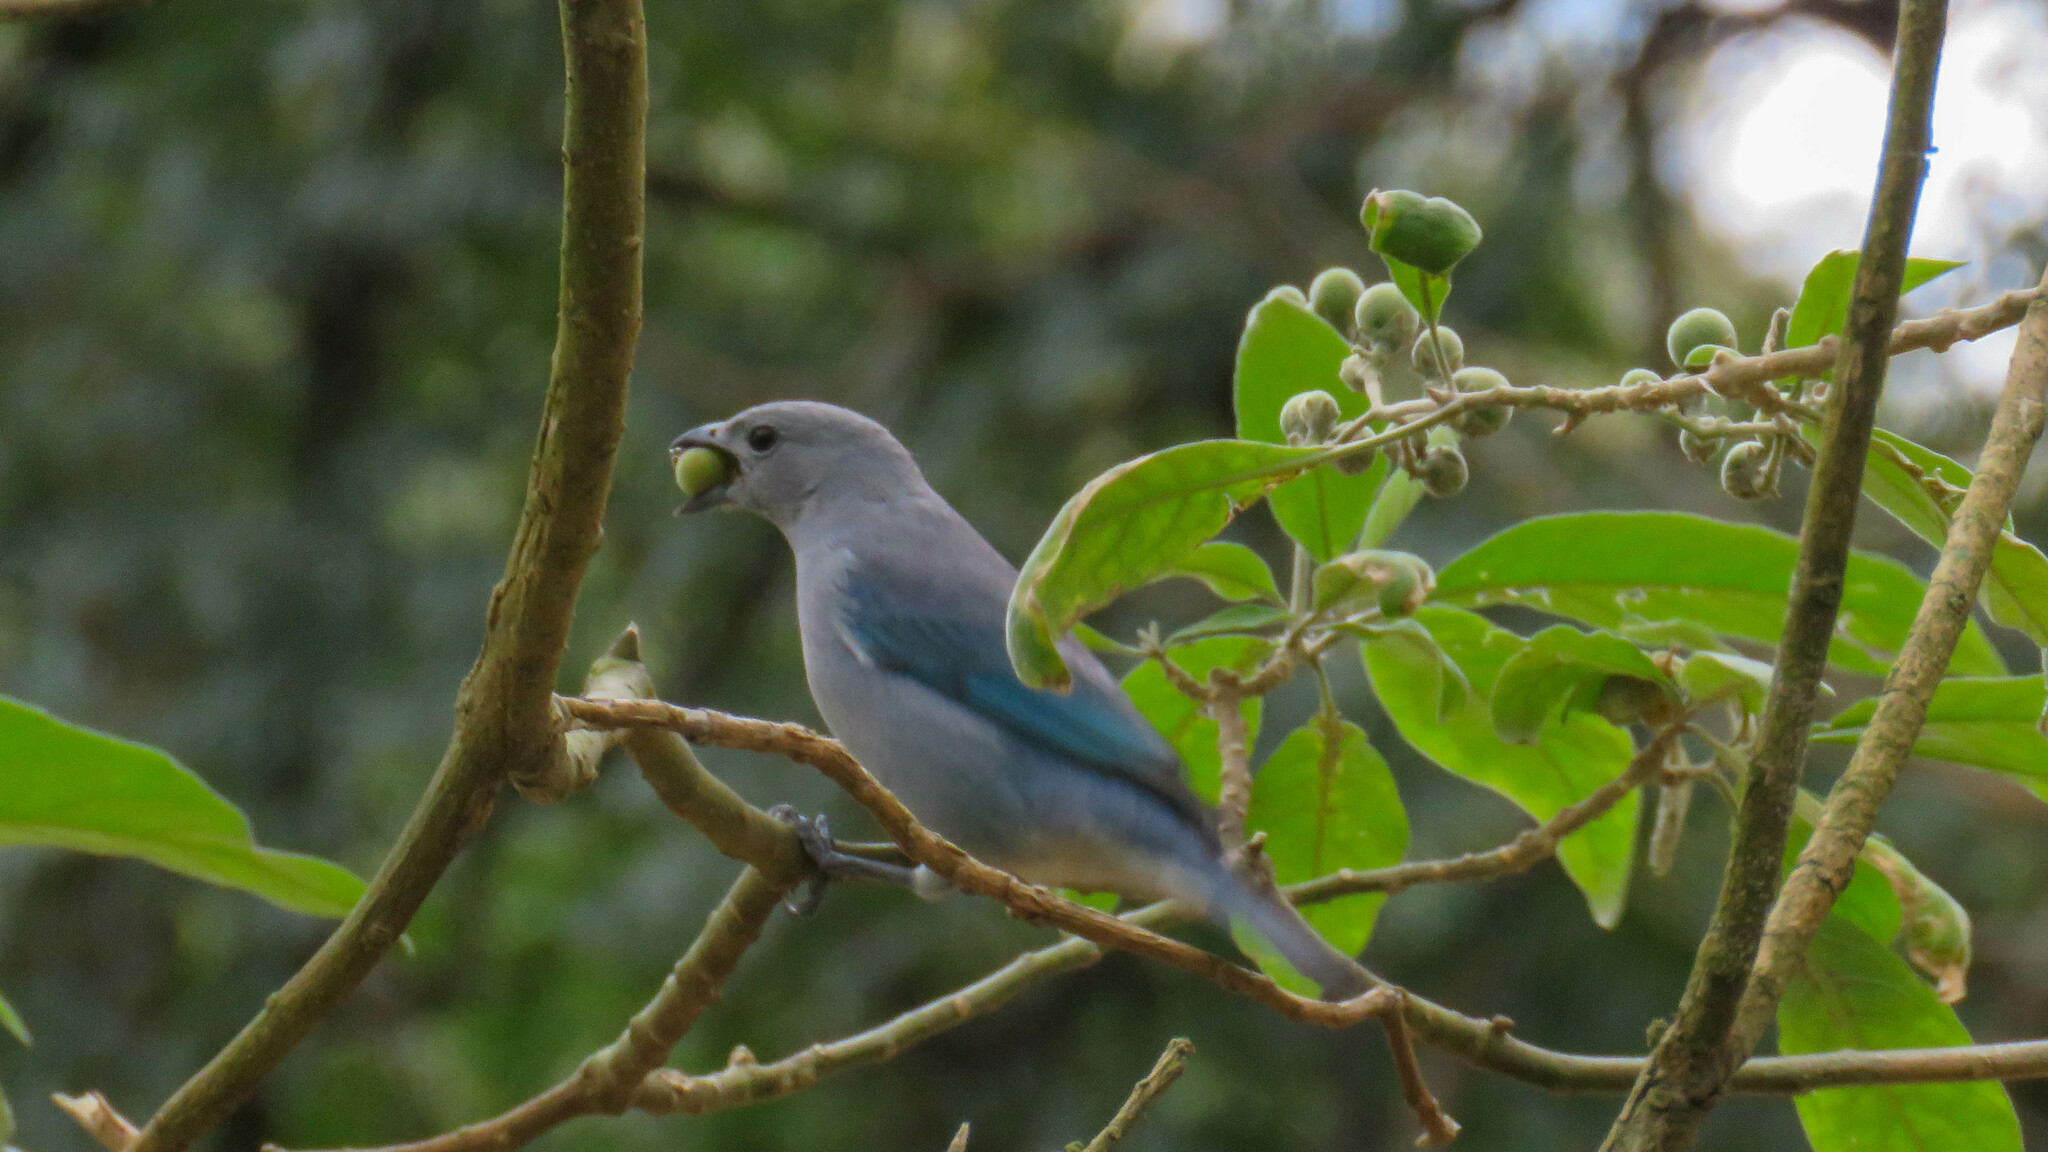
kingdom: Animalia
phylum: Chordata
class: Aves
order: Passeriformes
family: Thraupidae
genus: Thraupis
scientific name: Thraupis sayaca
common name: Sayaca tanager
